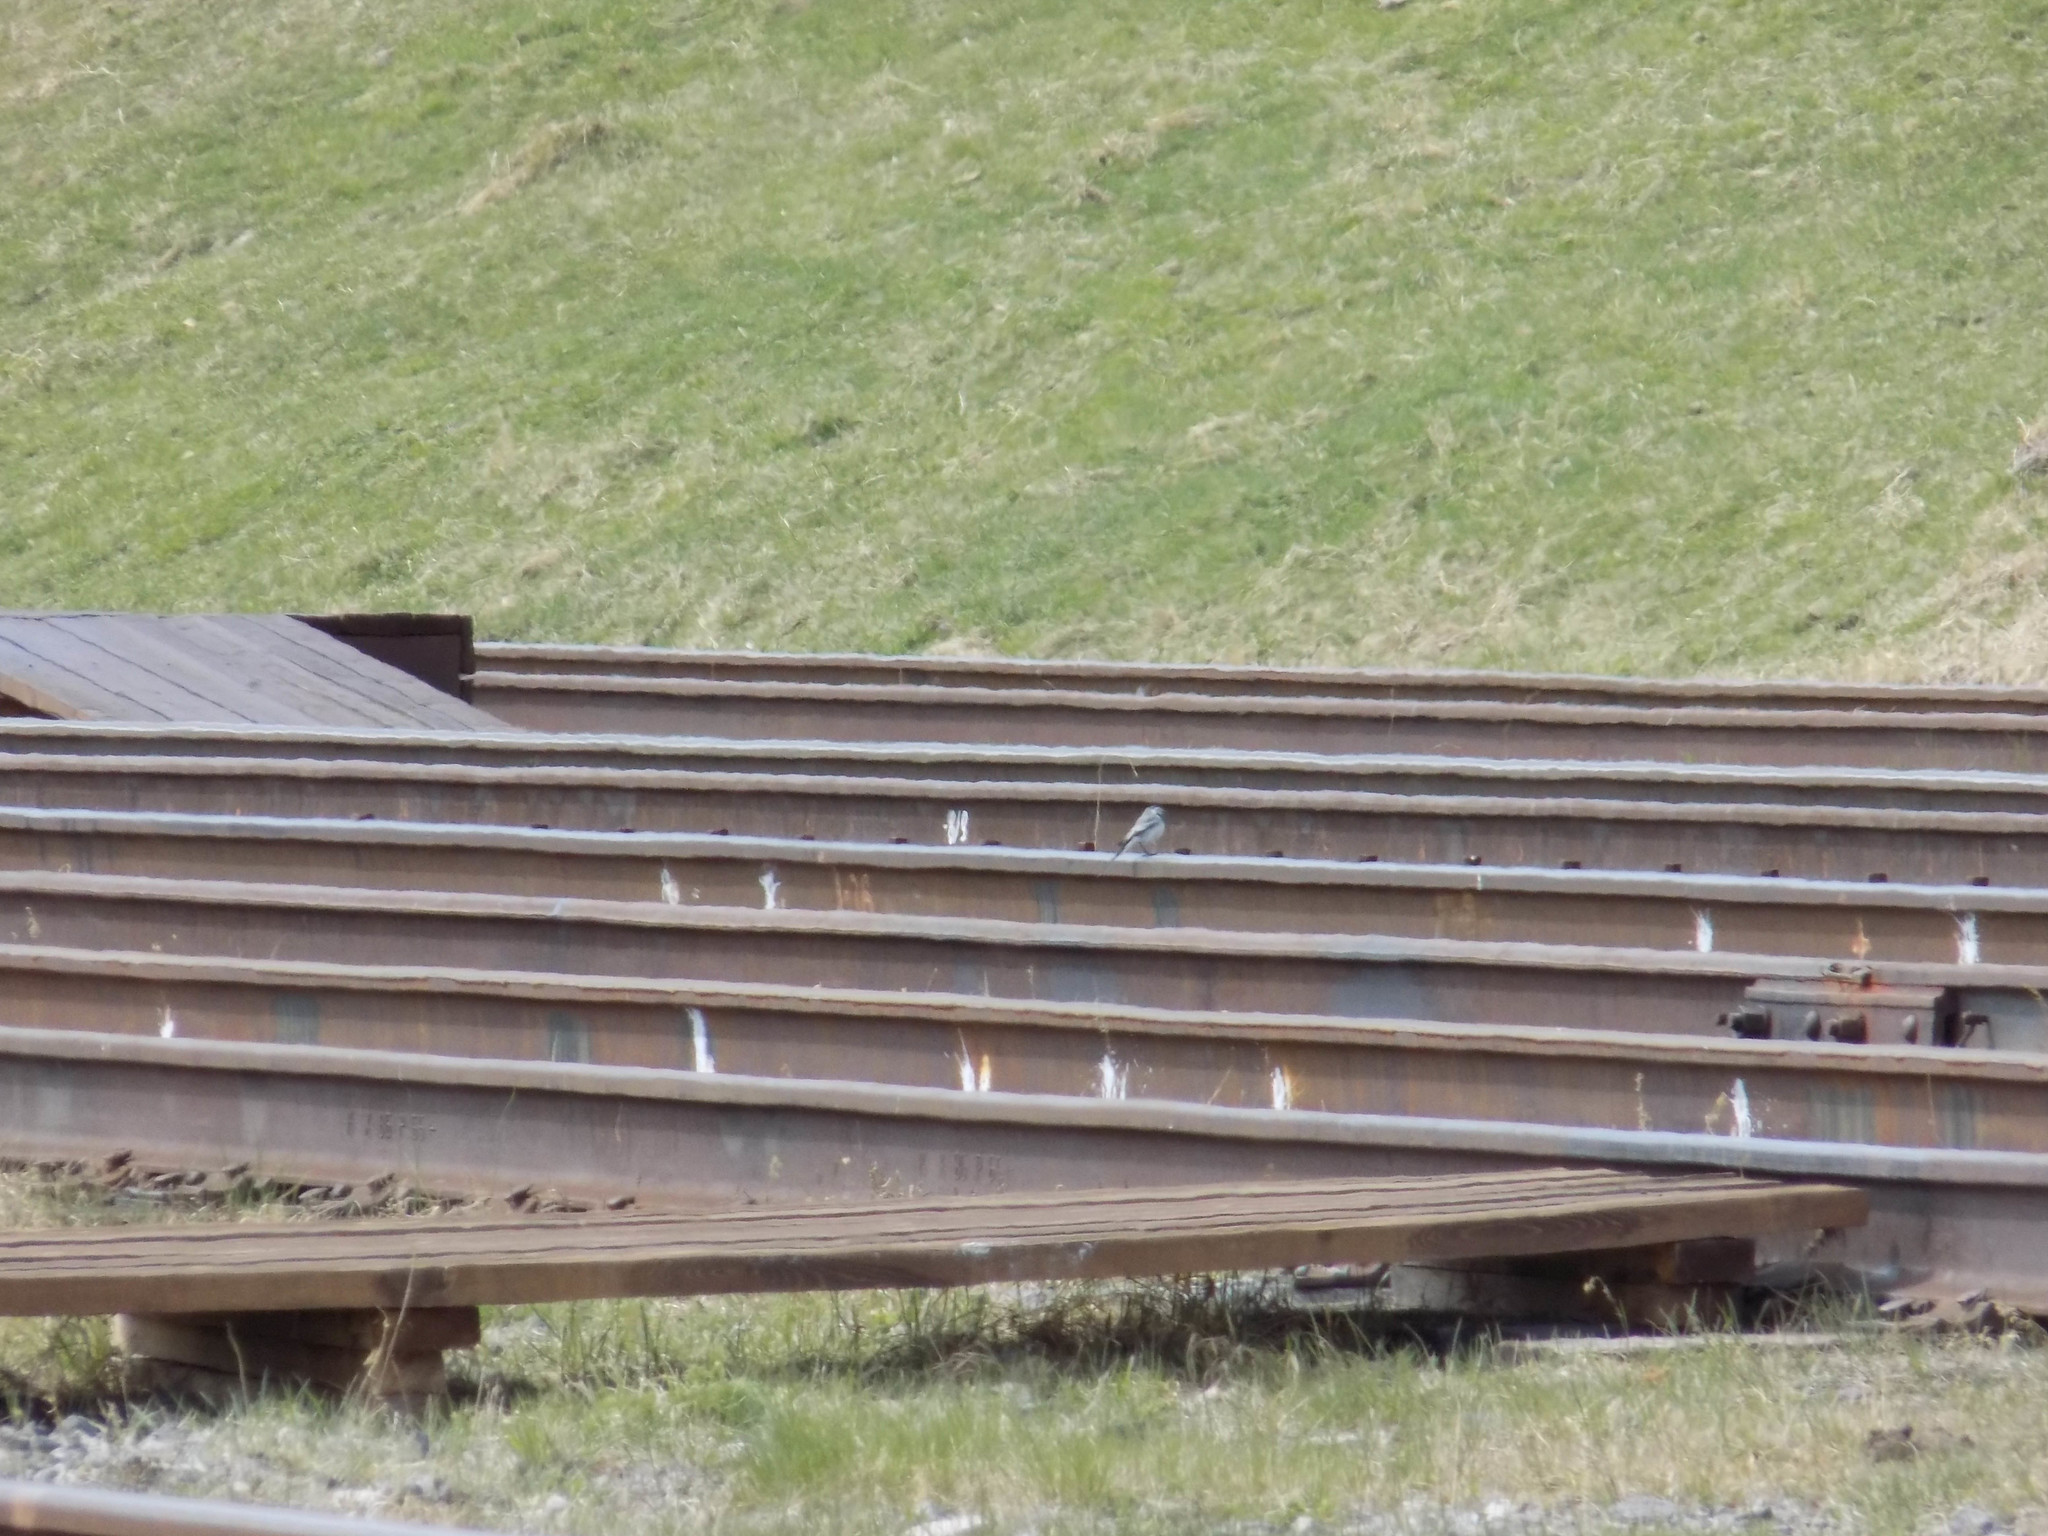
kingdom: Animalia
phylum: Chordata
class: Aves
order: Passeriformes
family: Motacillidae
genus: Motacilla
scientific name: Motacilla alba
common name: White wagtail
